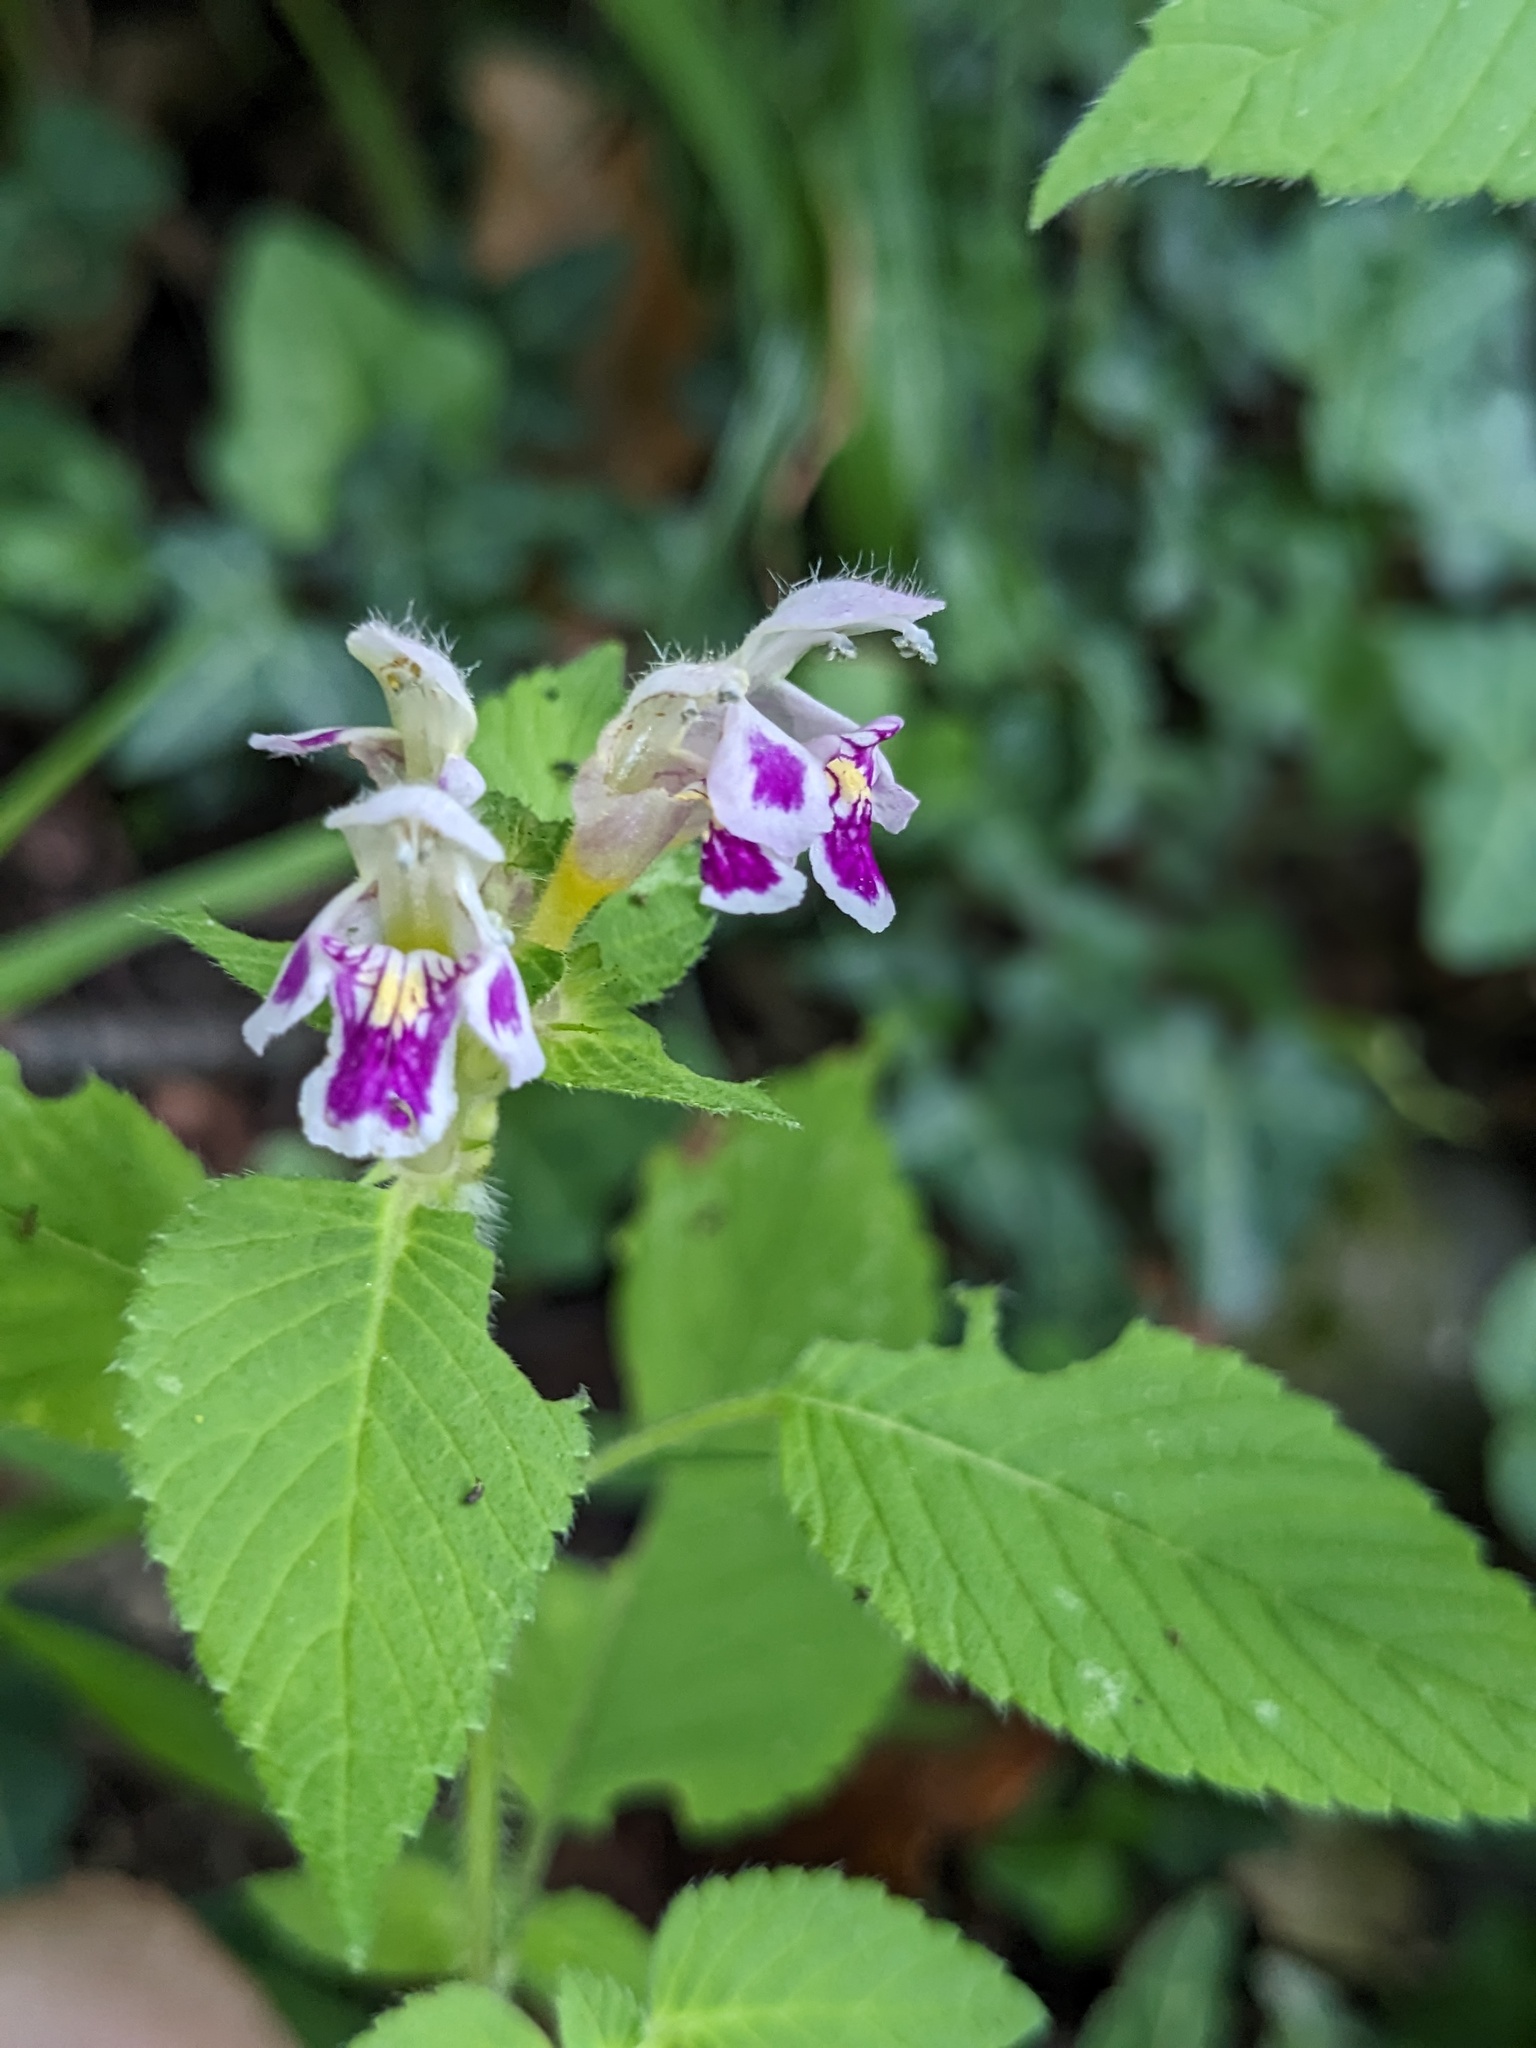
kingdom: Plantae
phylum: Tracheophyta
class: Magnoliopsida
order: Lamiales
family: Lamiaceae
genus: Galeopsis
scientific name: Galeopsis pubescens
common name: Downy hemp-nettle
